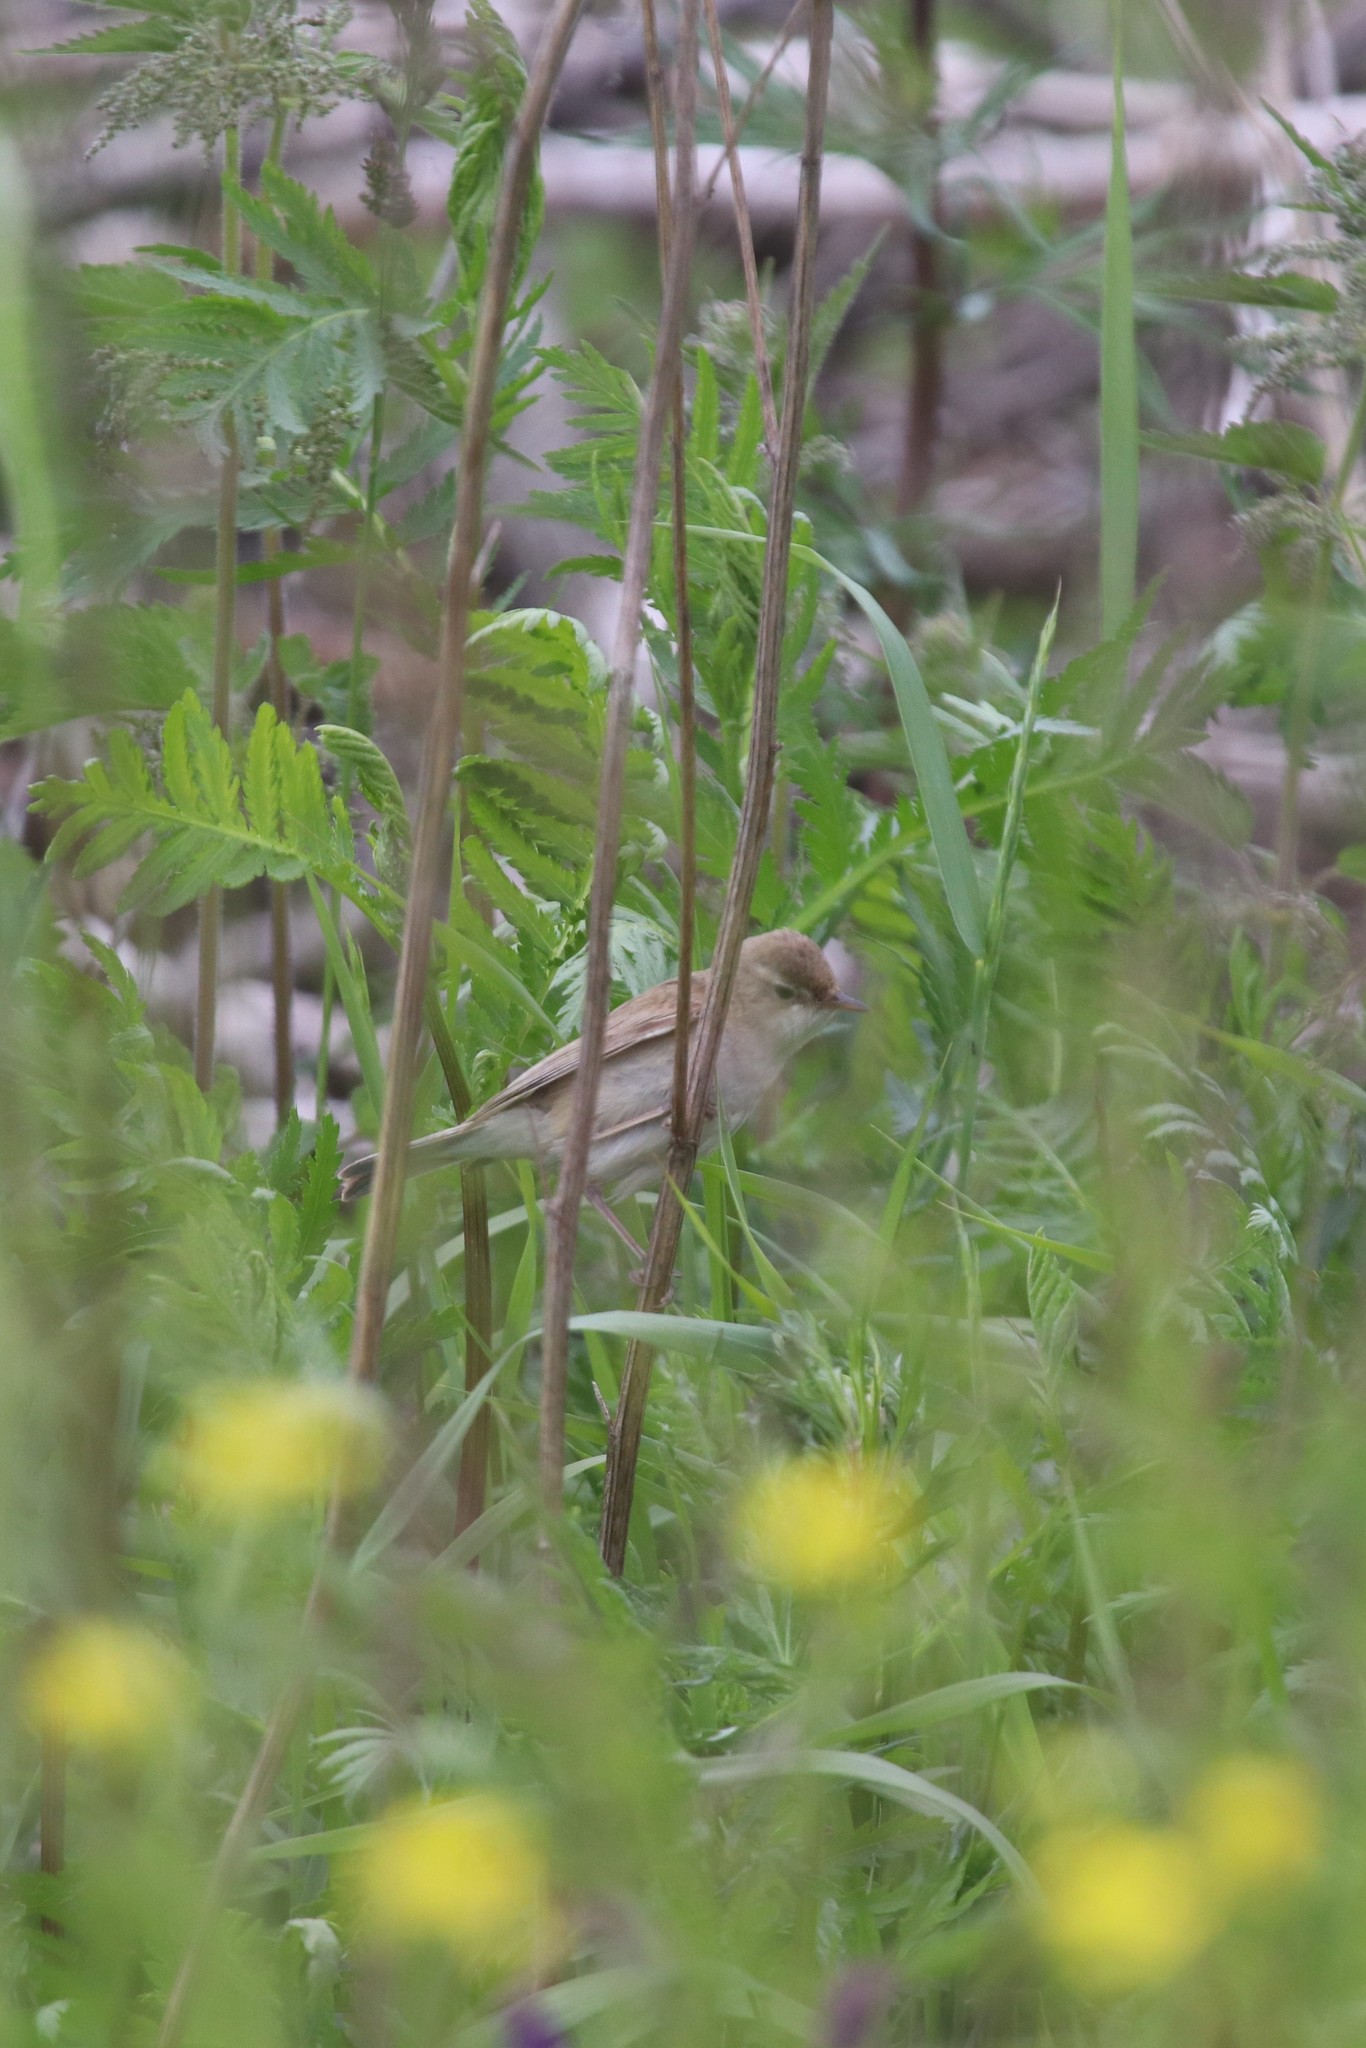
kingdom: Animalia
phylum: Chordata
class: Aves
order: Passeriformes
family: Acrocephalidae
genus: Iduna
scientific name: Iduna caligata
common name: Booted warbler
